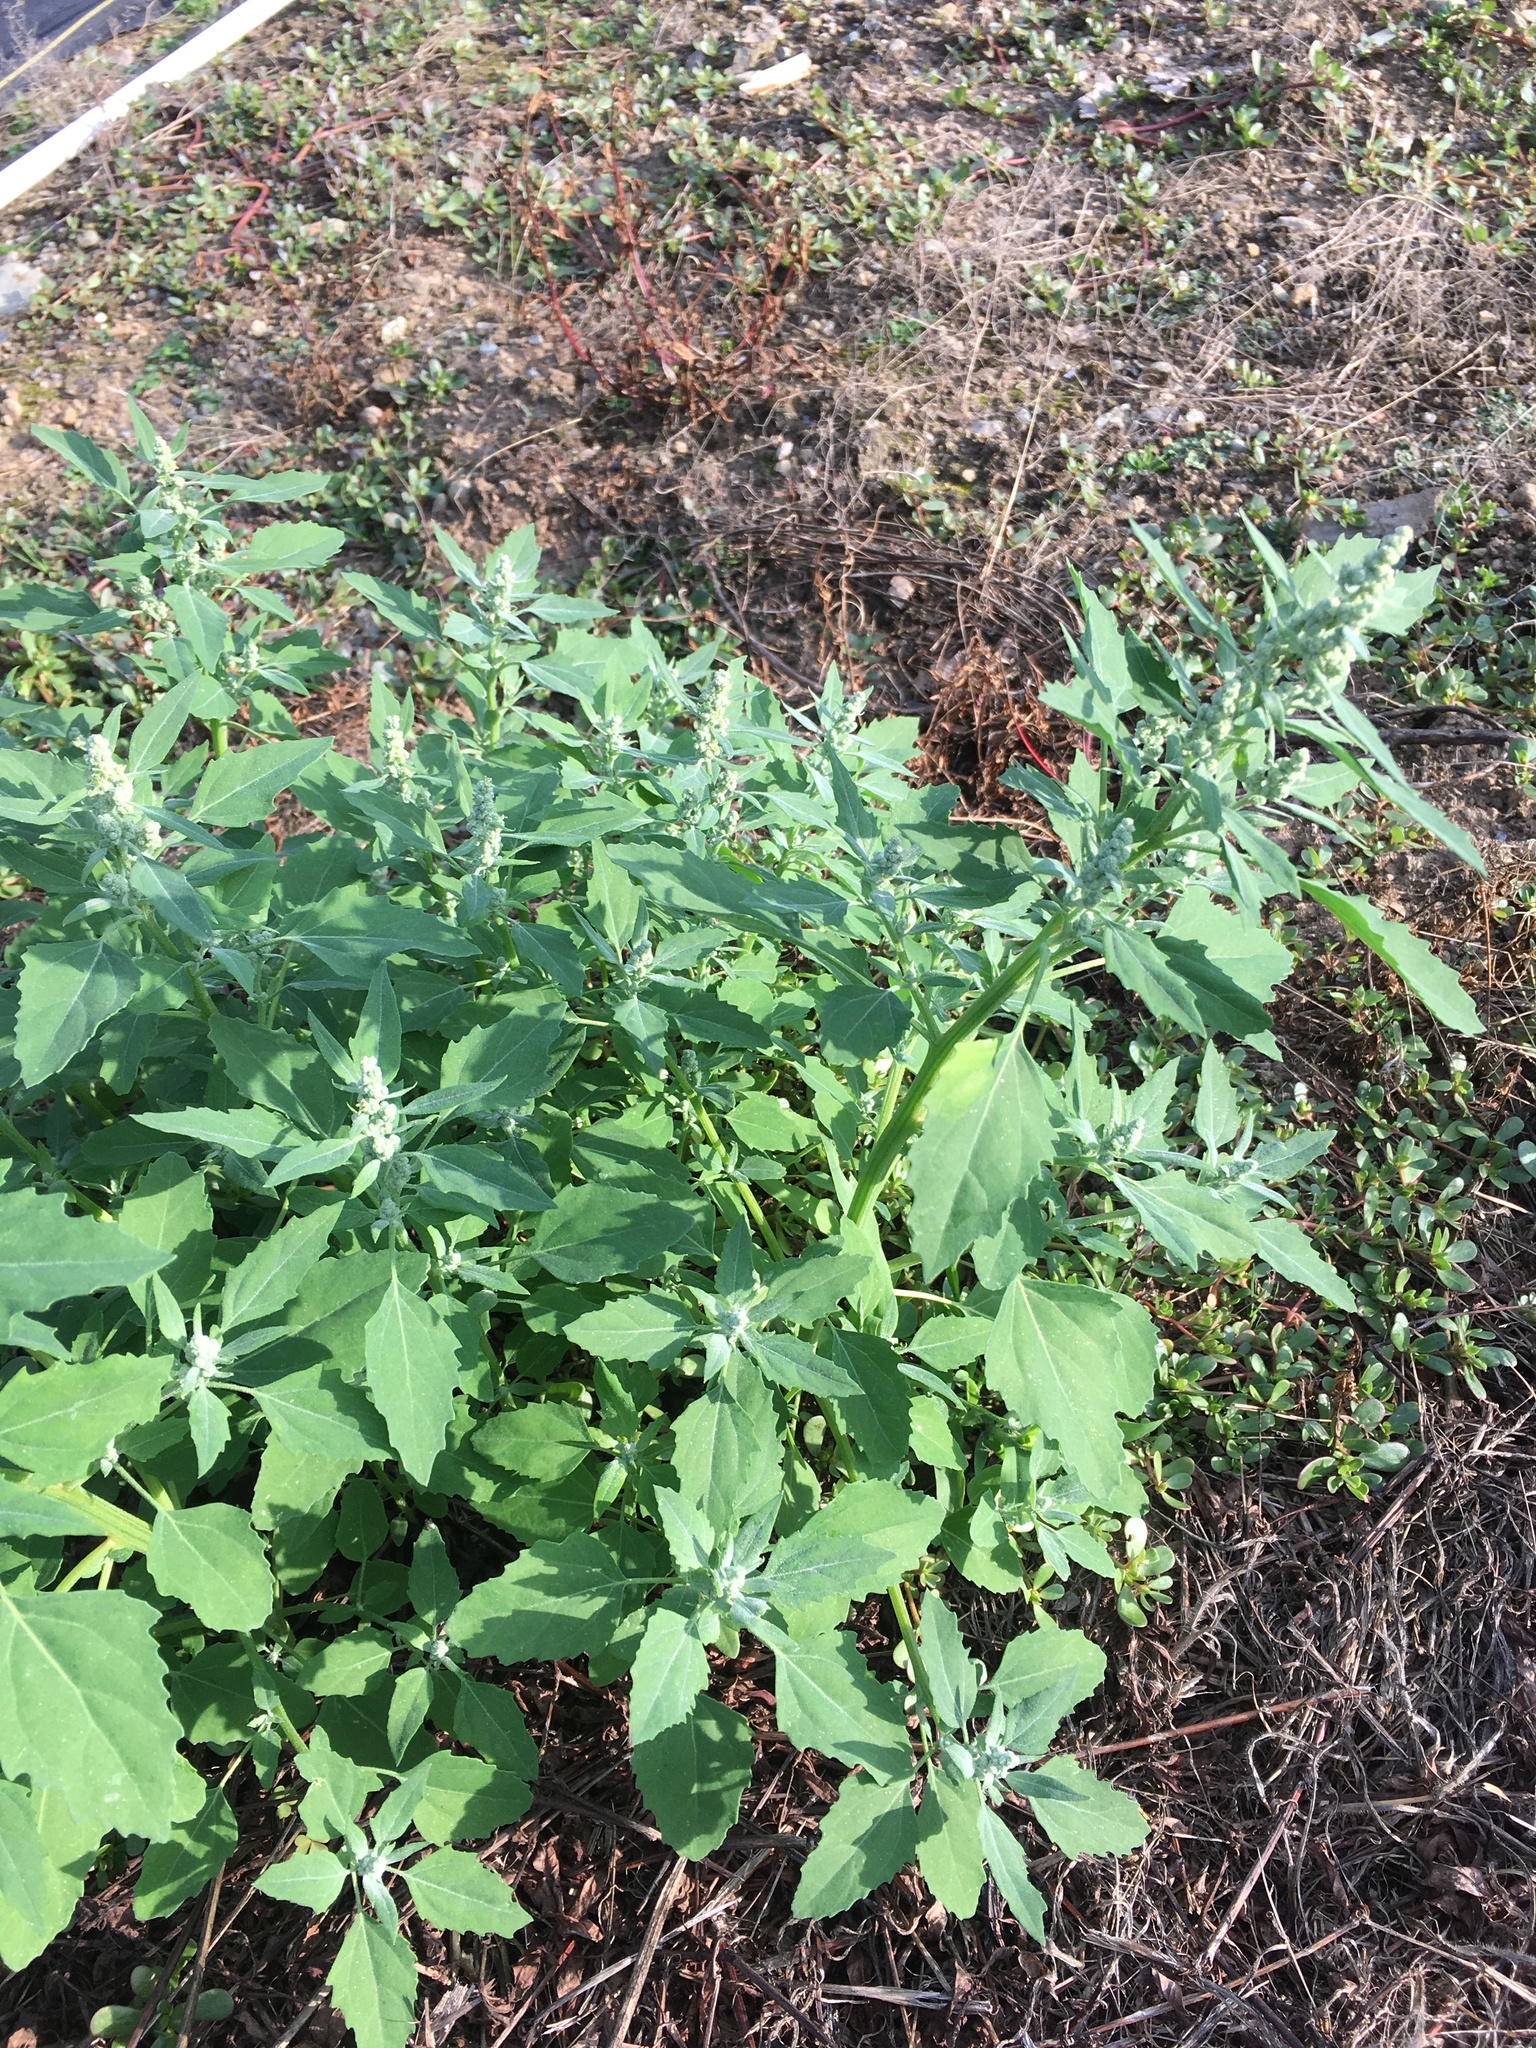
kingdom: Plantae
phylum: Tracheophyta
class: Magnoliopsida
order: Caryophyllales
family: Amaranthaceae
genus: Chenopodium
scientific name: Chenopodium album
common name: Fat-hen
